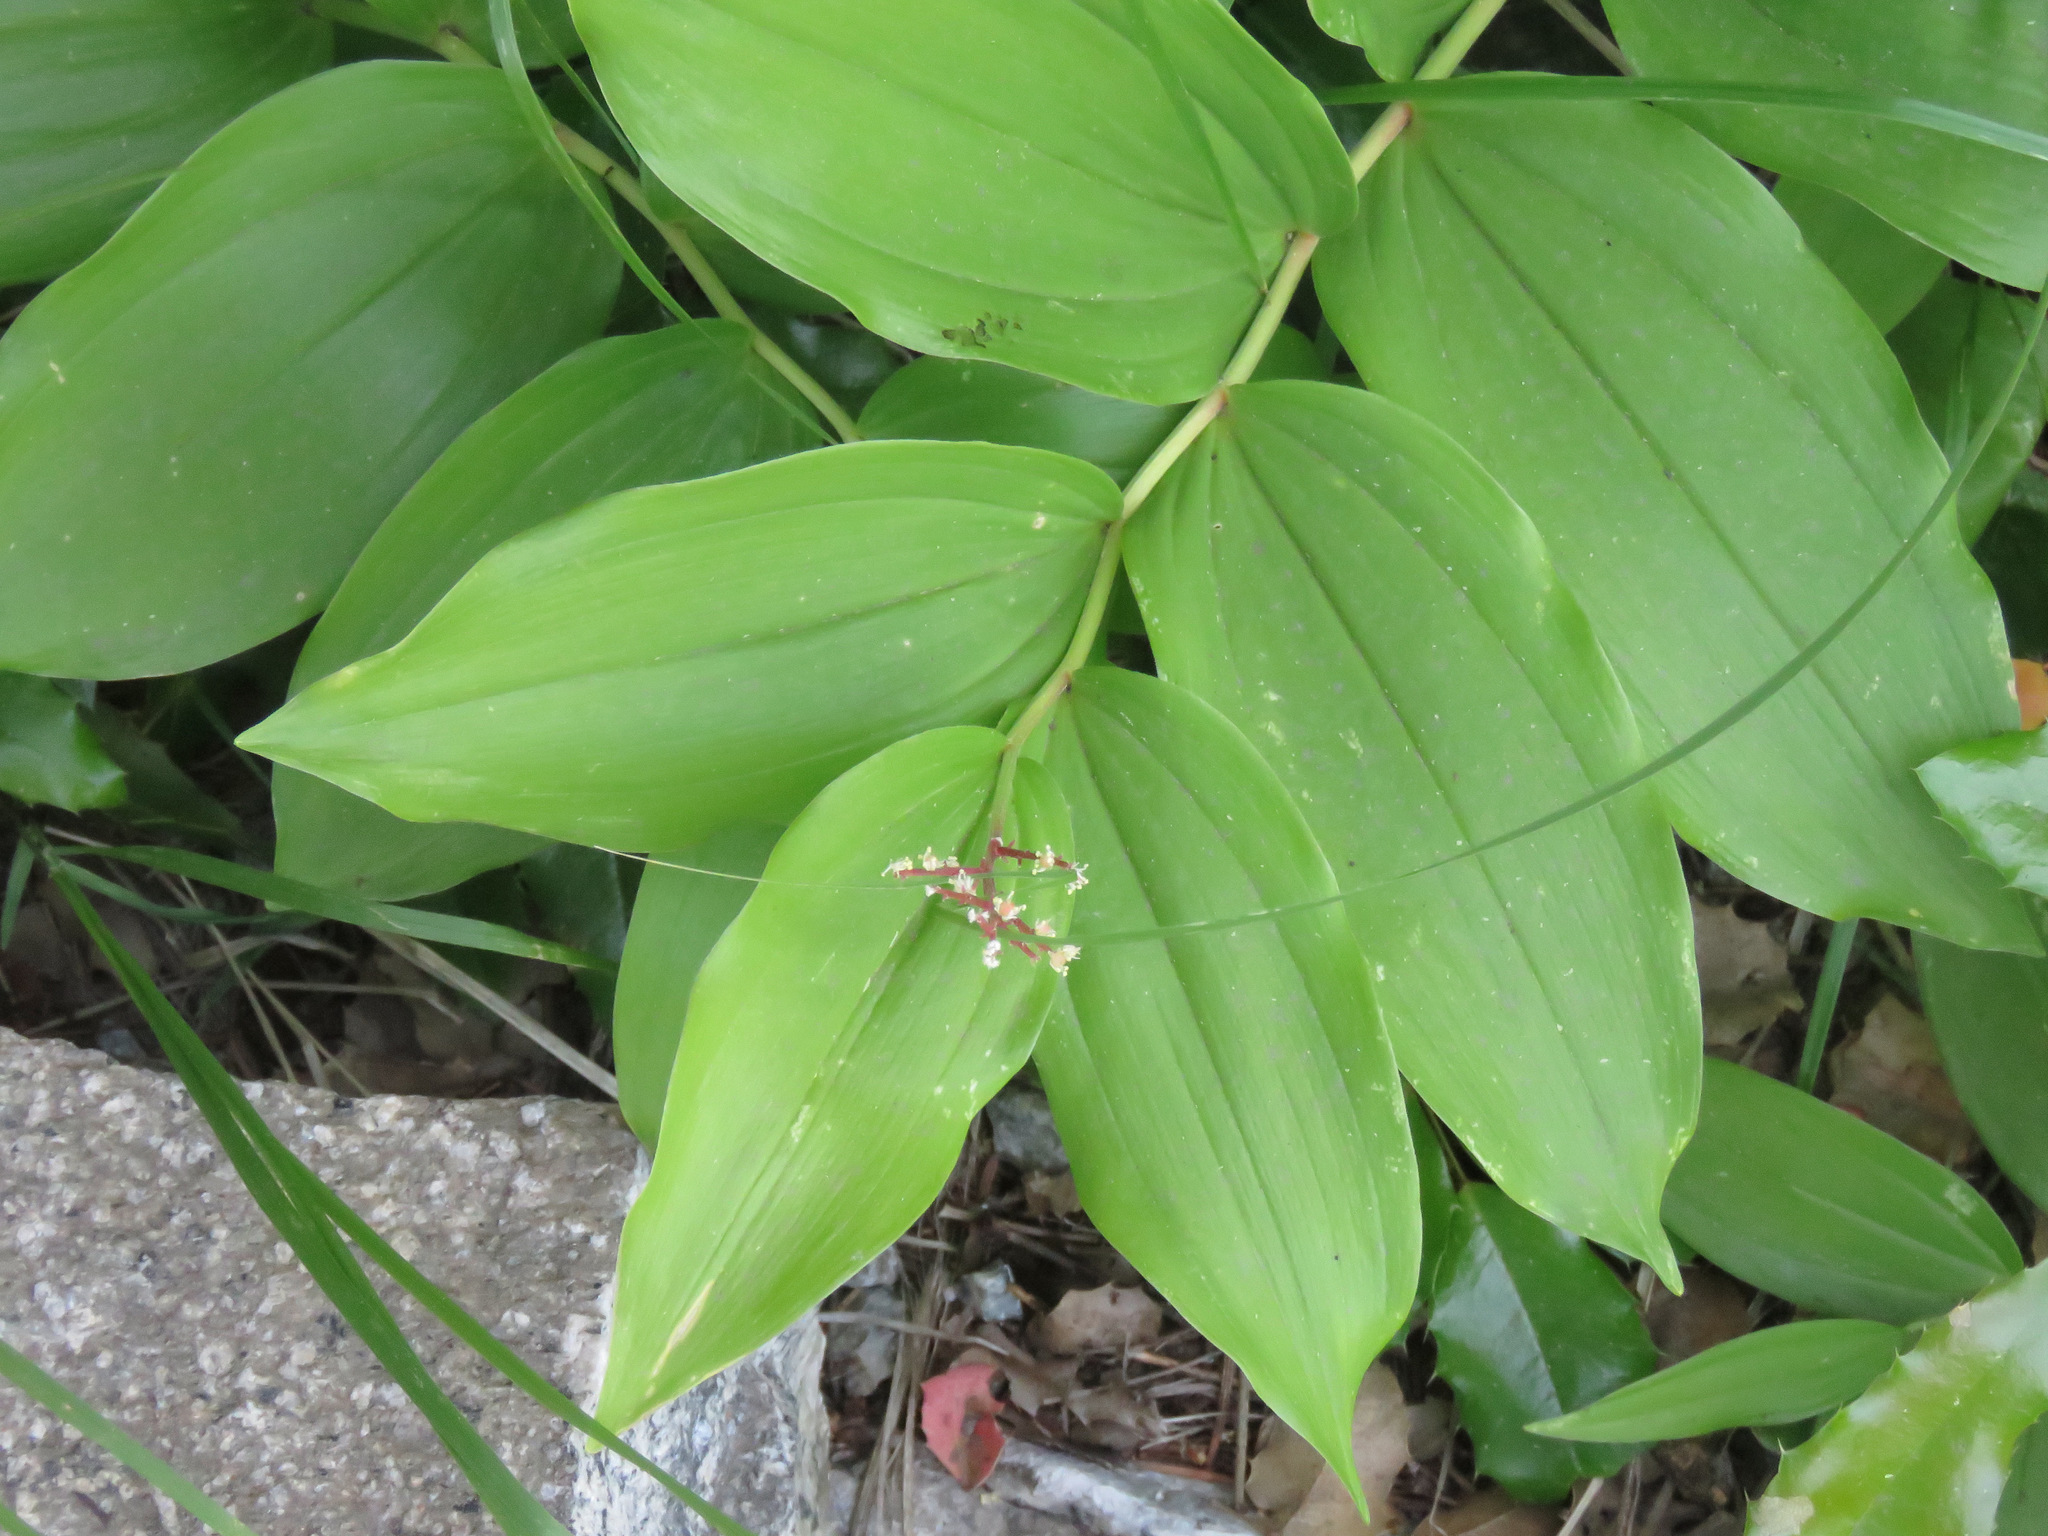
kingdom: Plantae
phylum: Tracheophyta
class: Liliopsida
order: Asparagales
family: Asparagaceae
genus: Maianthemum
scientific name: Maianthemum racemosum
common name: False spikenard
